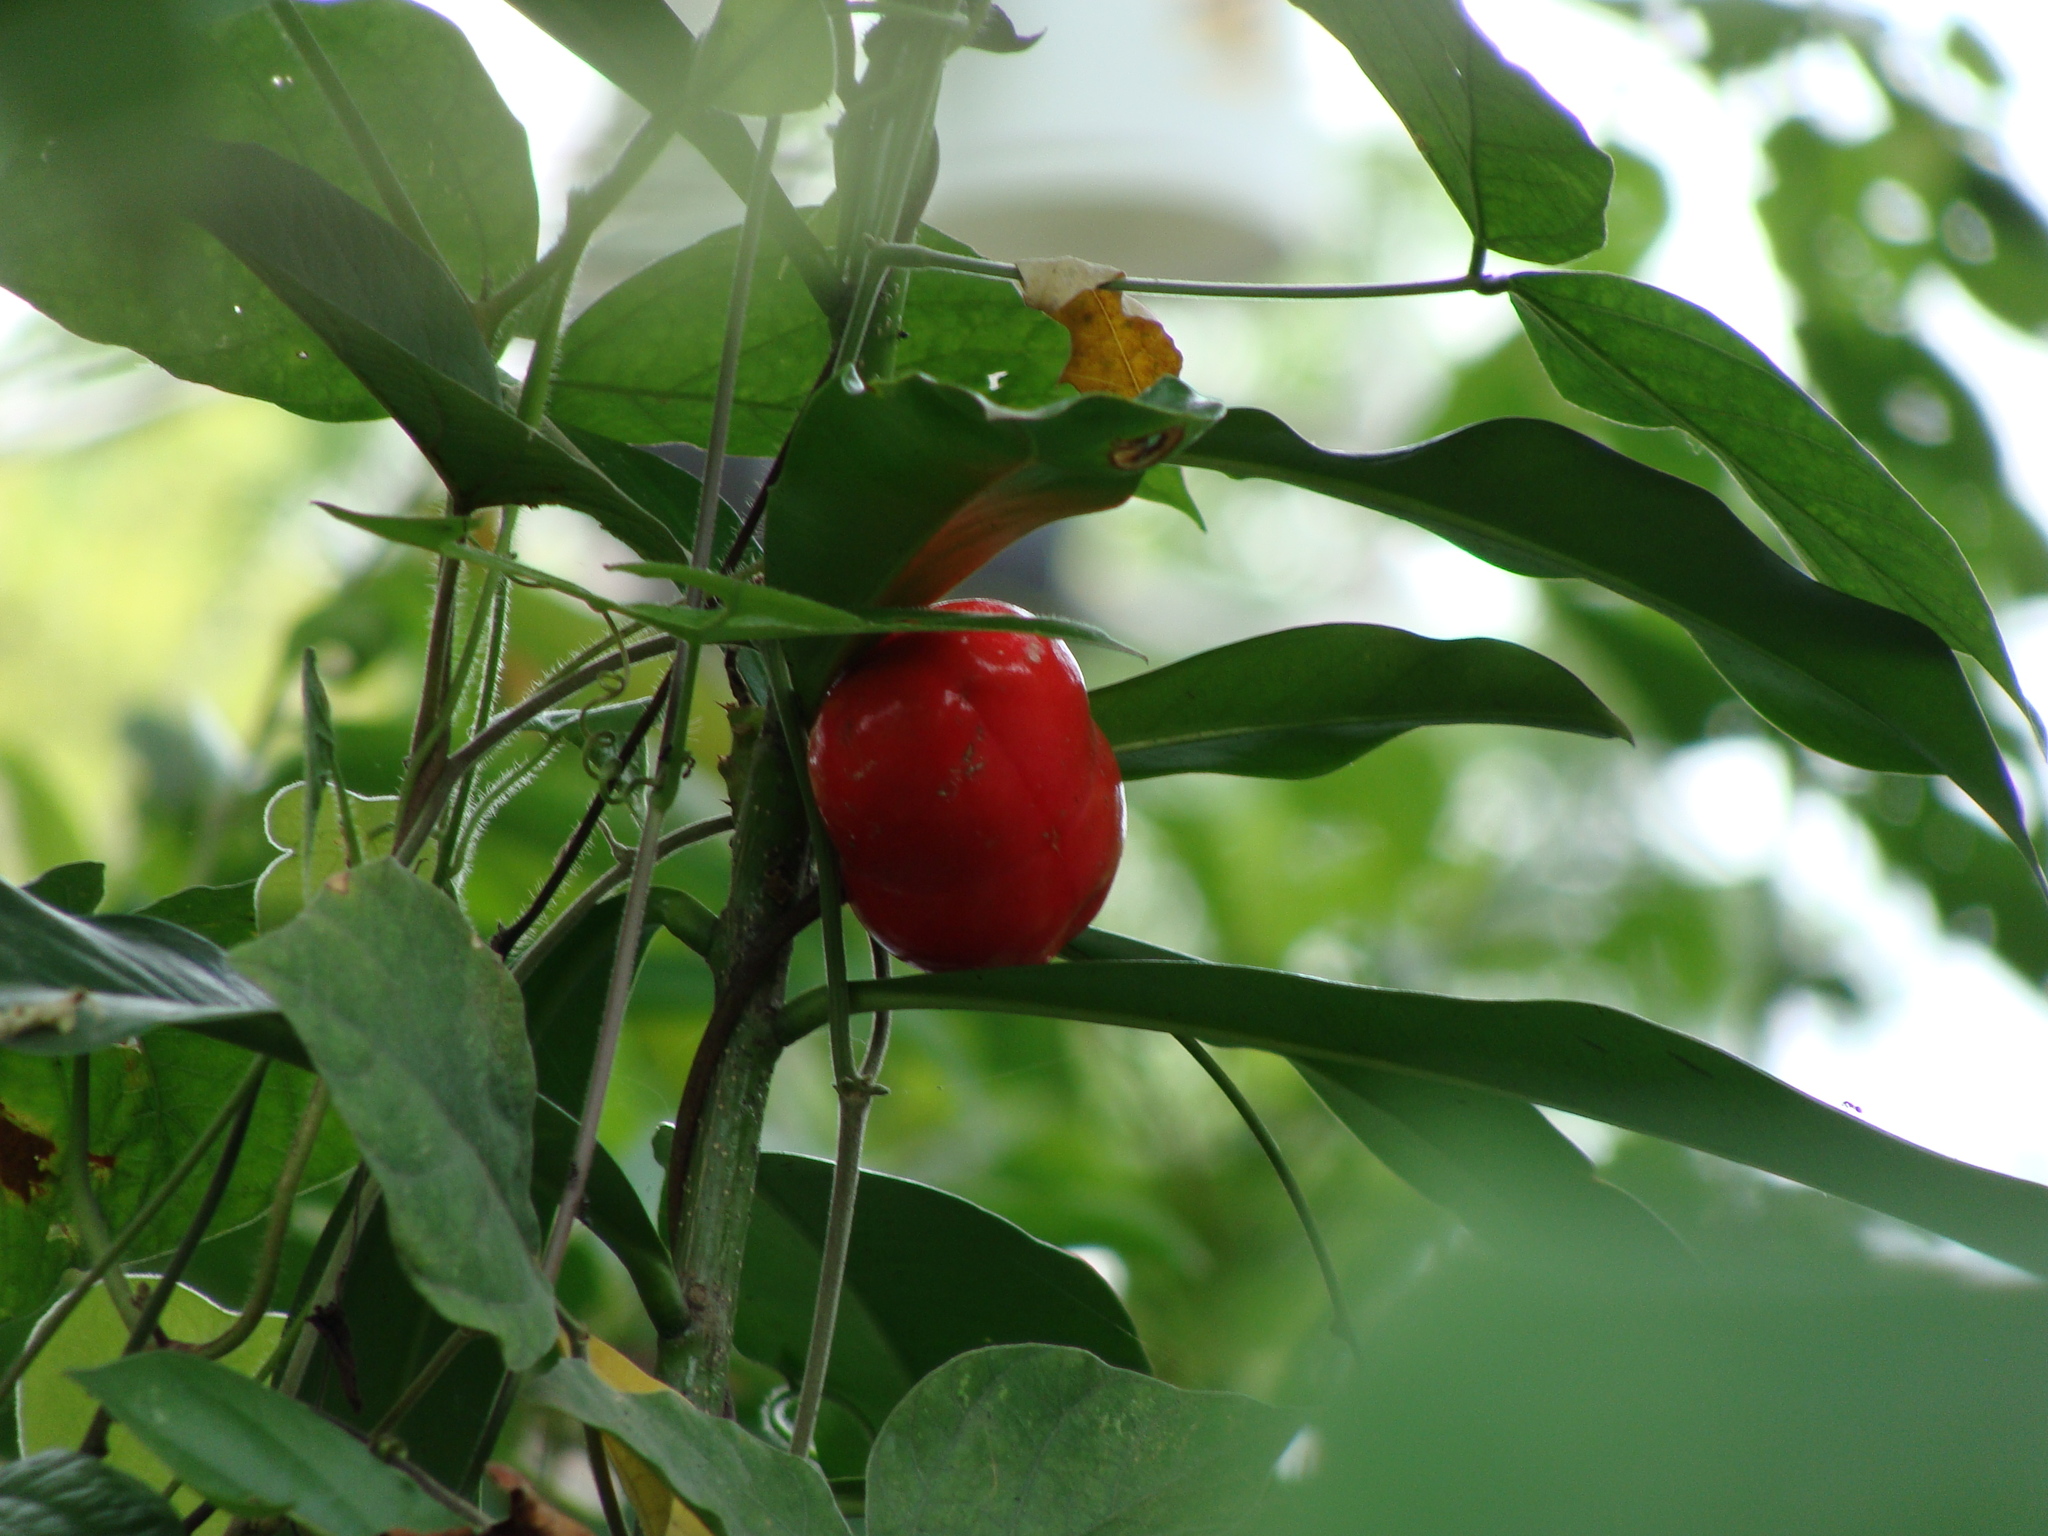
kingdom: Plantae
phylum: Tracheophyta
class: Magnoliopsida
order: Gentianales
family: Apocynaceae
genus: Thevetia
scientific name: Thevetia ahouai
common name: Broadleaf thevetia
